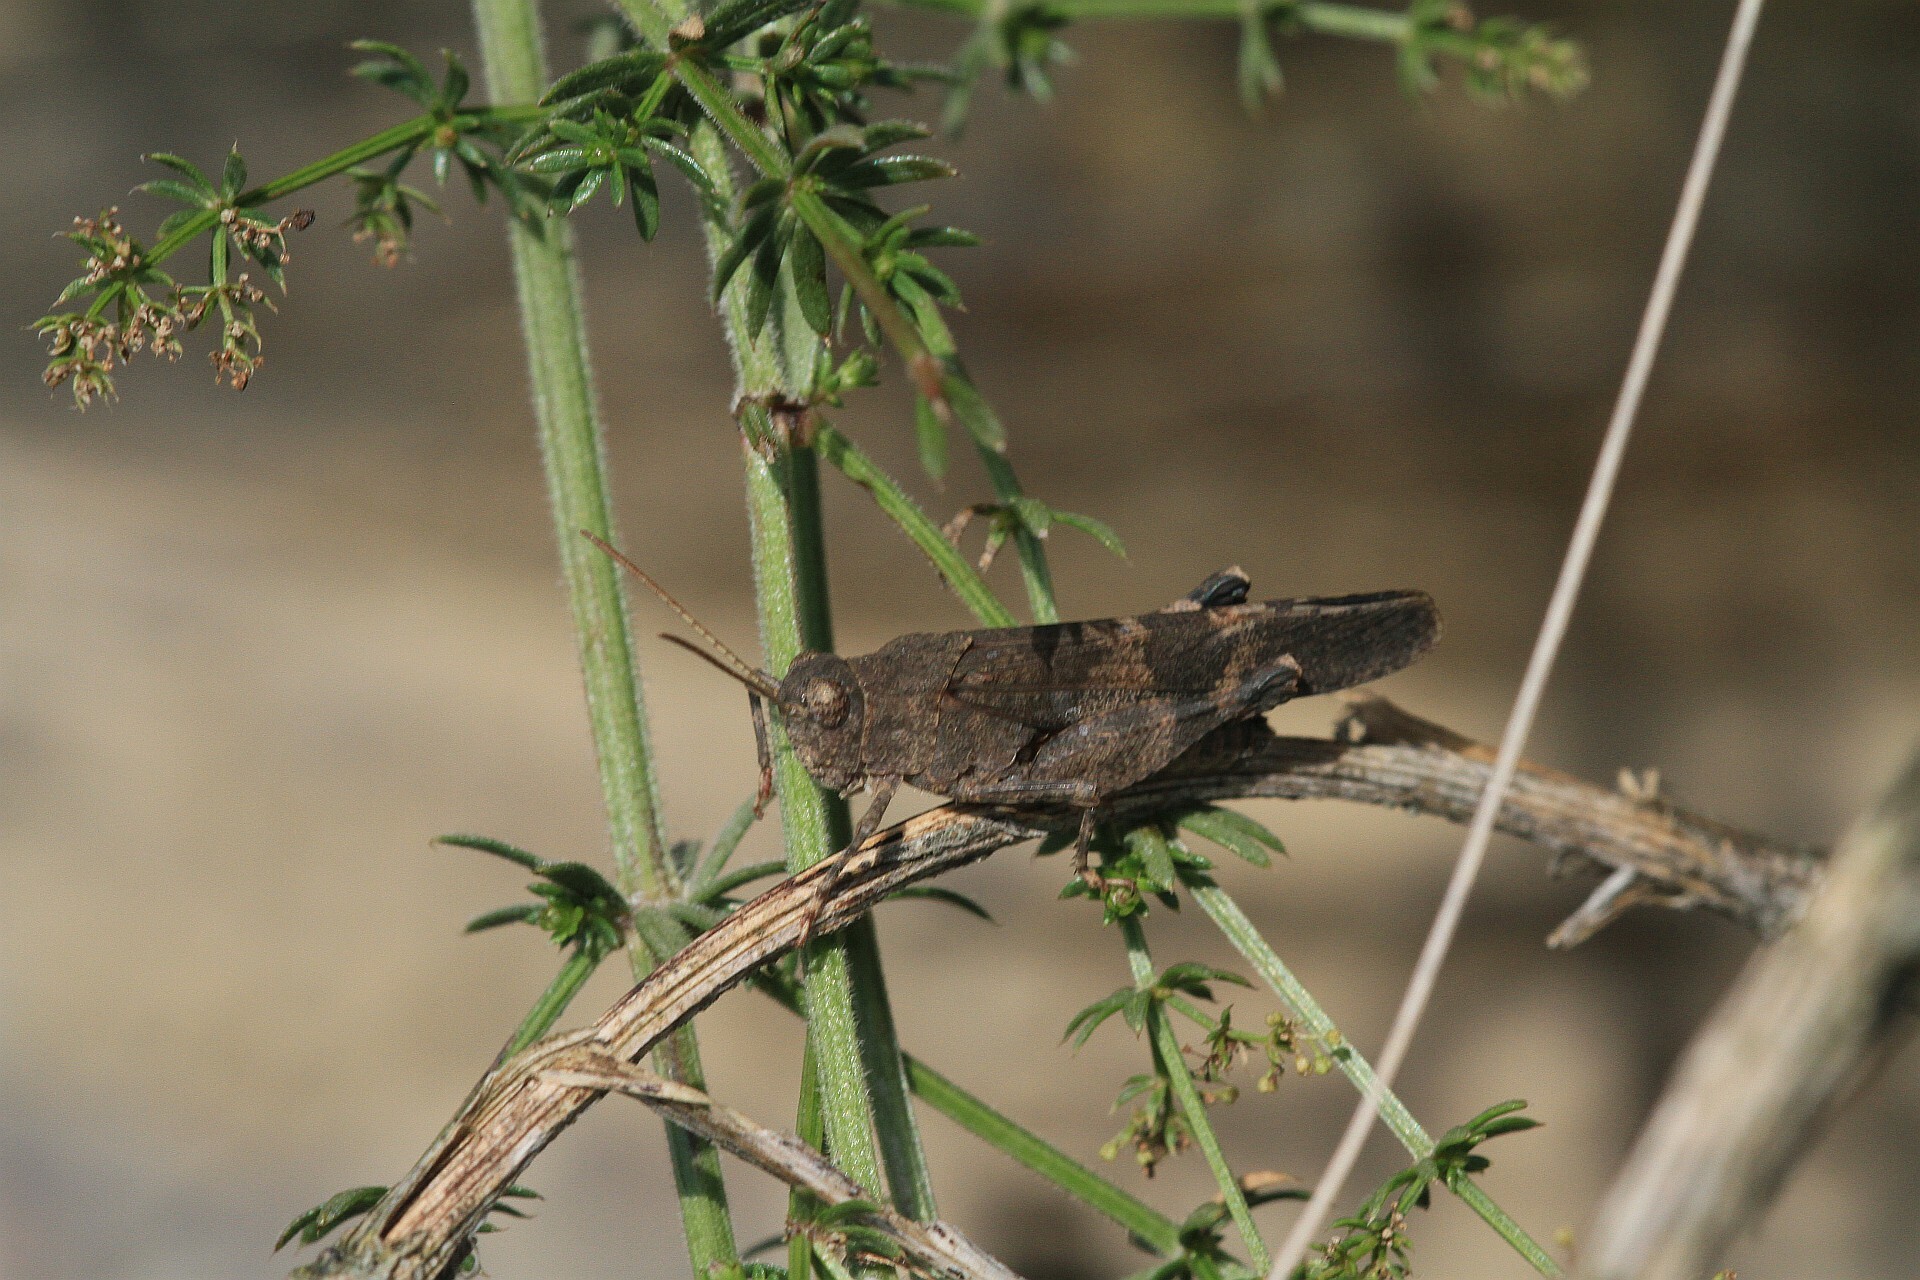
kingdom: Animalia
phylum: Arthropoda
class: Insecta
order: Orthoptera
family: Acrididae
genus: Oedipoda
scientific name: Oedipoda germanica
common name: Red band-winged grasshopper
